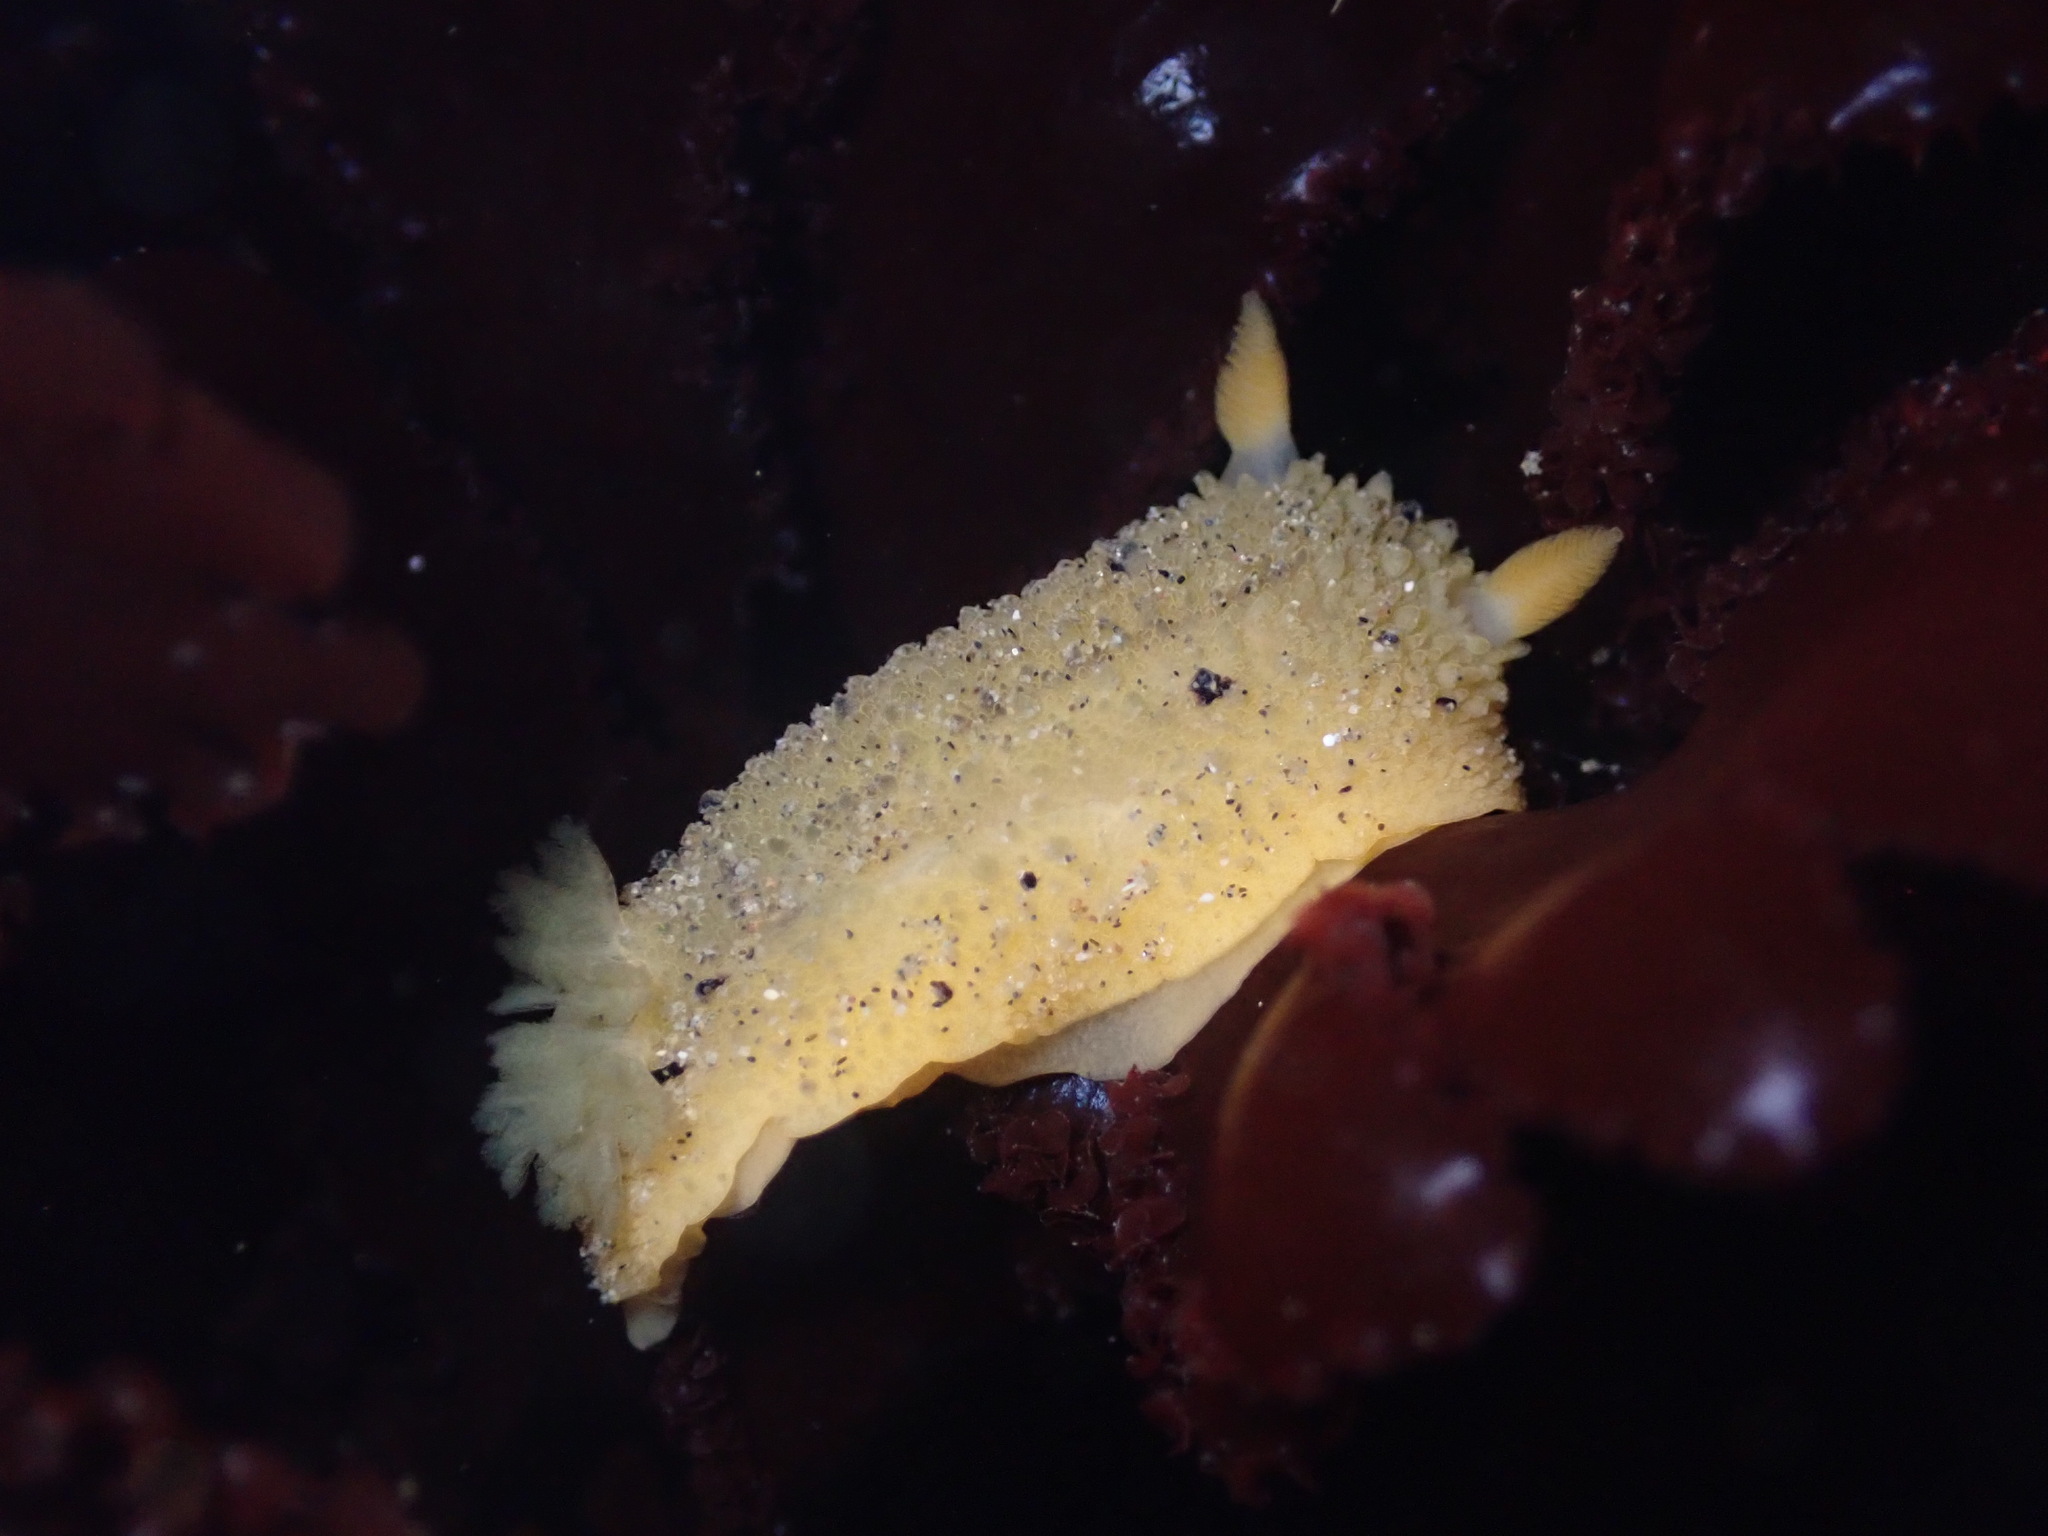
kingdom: Animalia
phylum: Mollusca
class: Gastropoda
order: Nudibranchia
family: Dorididae
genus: Doris
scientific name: Doris montereyensis
